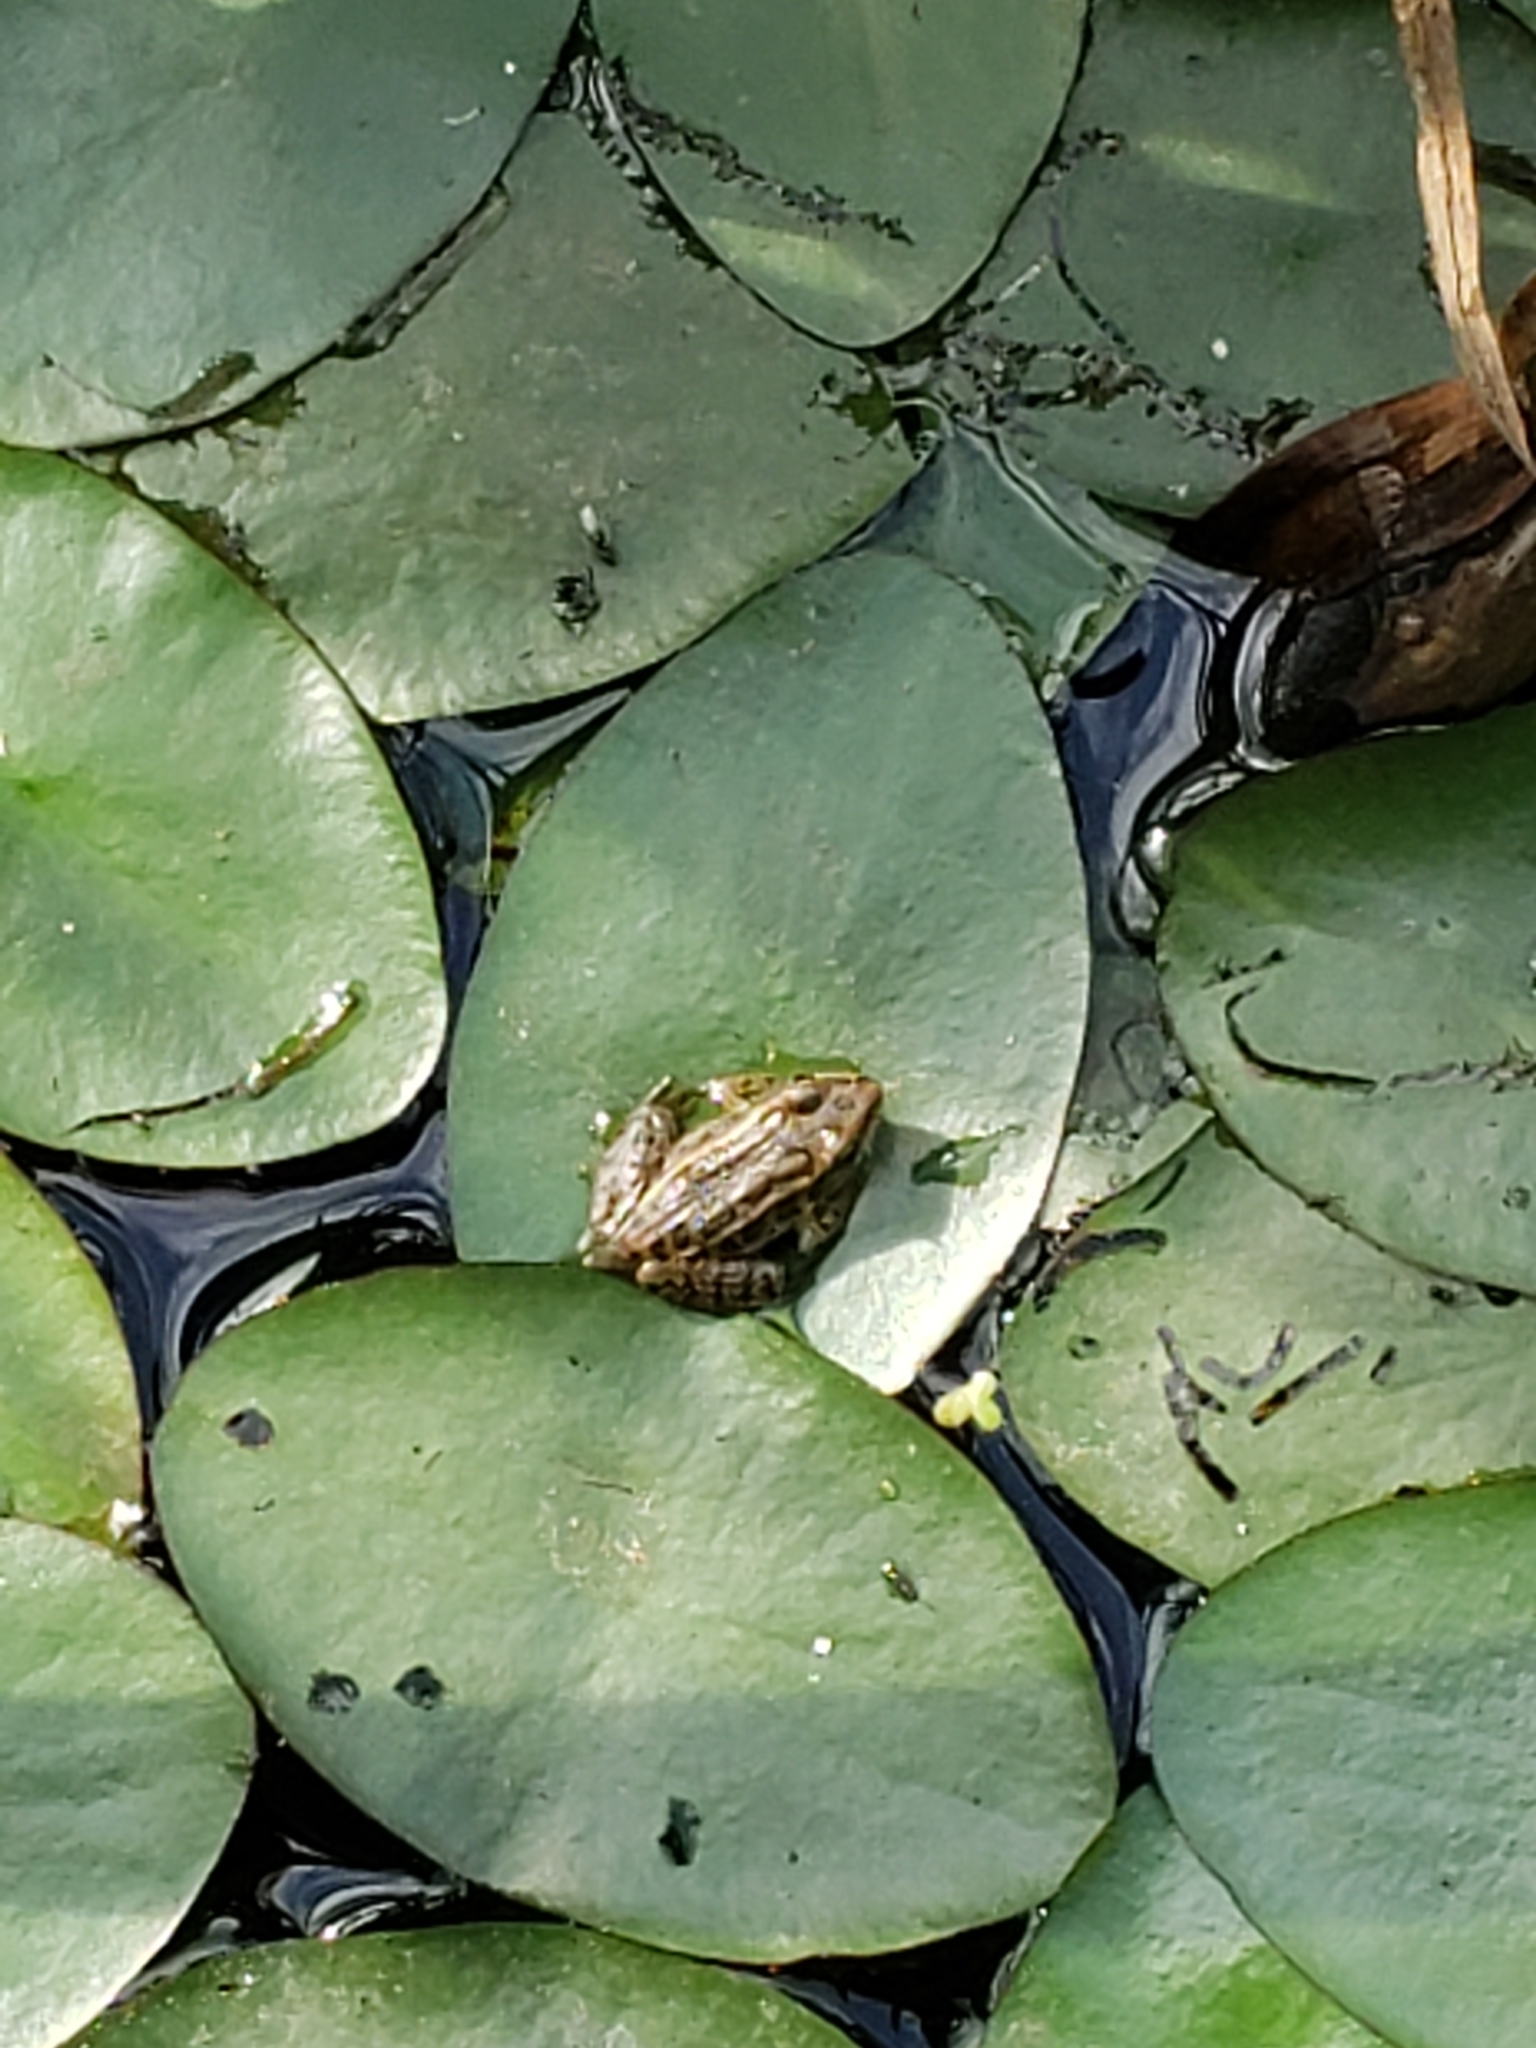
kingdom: Animalia
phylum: Chordata
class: Amphibia
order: Anura
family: Ranidae
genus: Lithobates
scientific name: Lithobates palustris
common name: Pickerel frog
